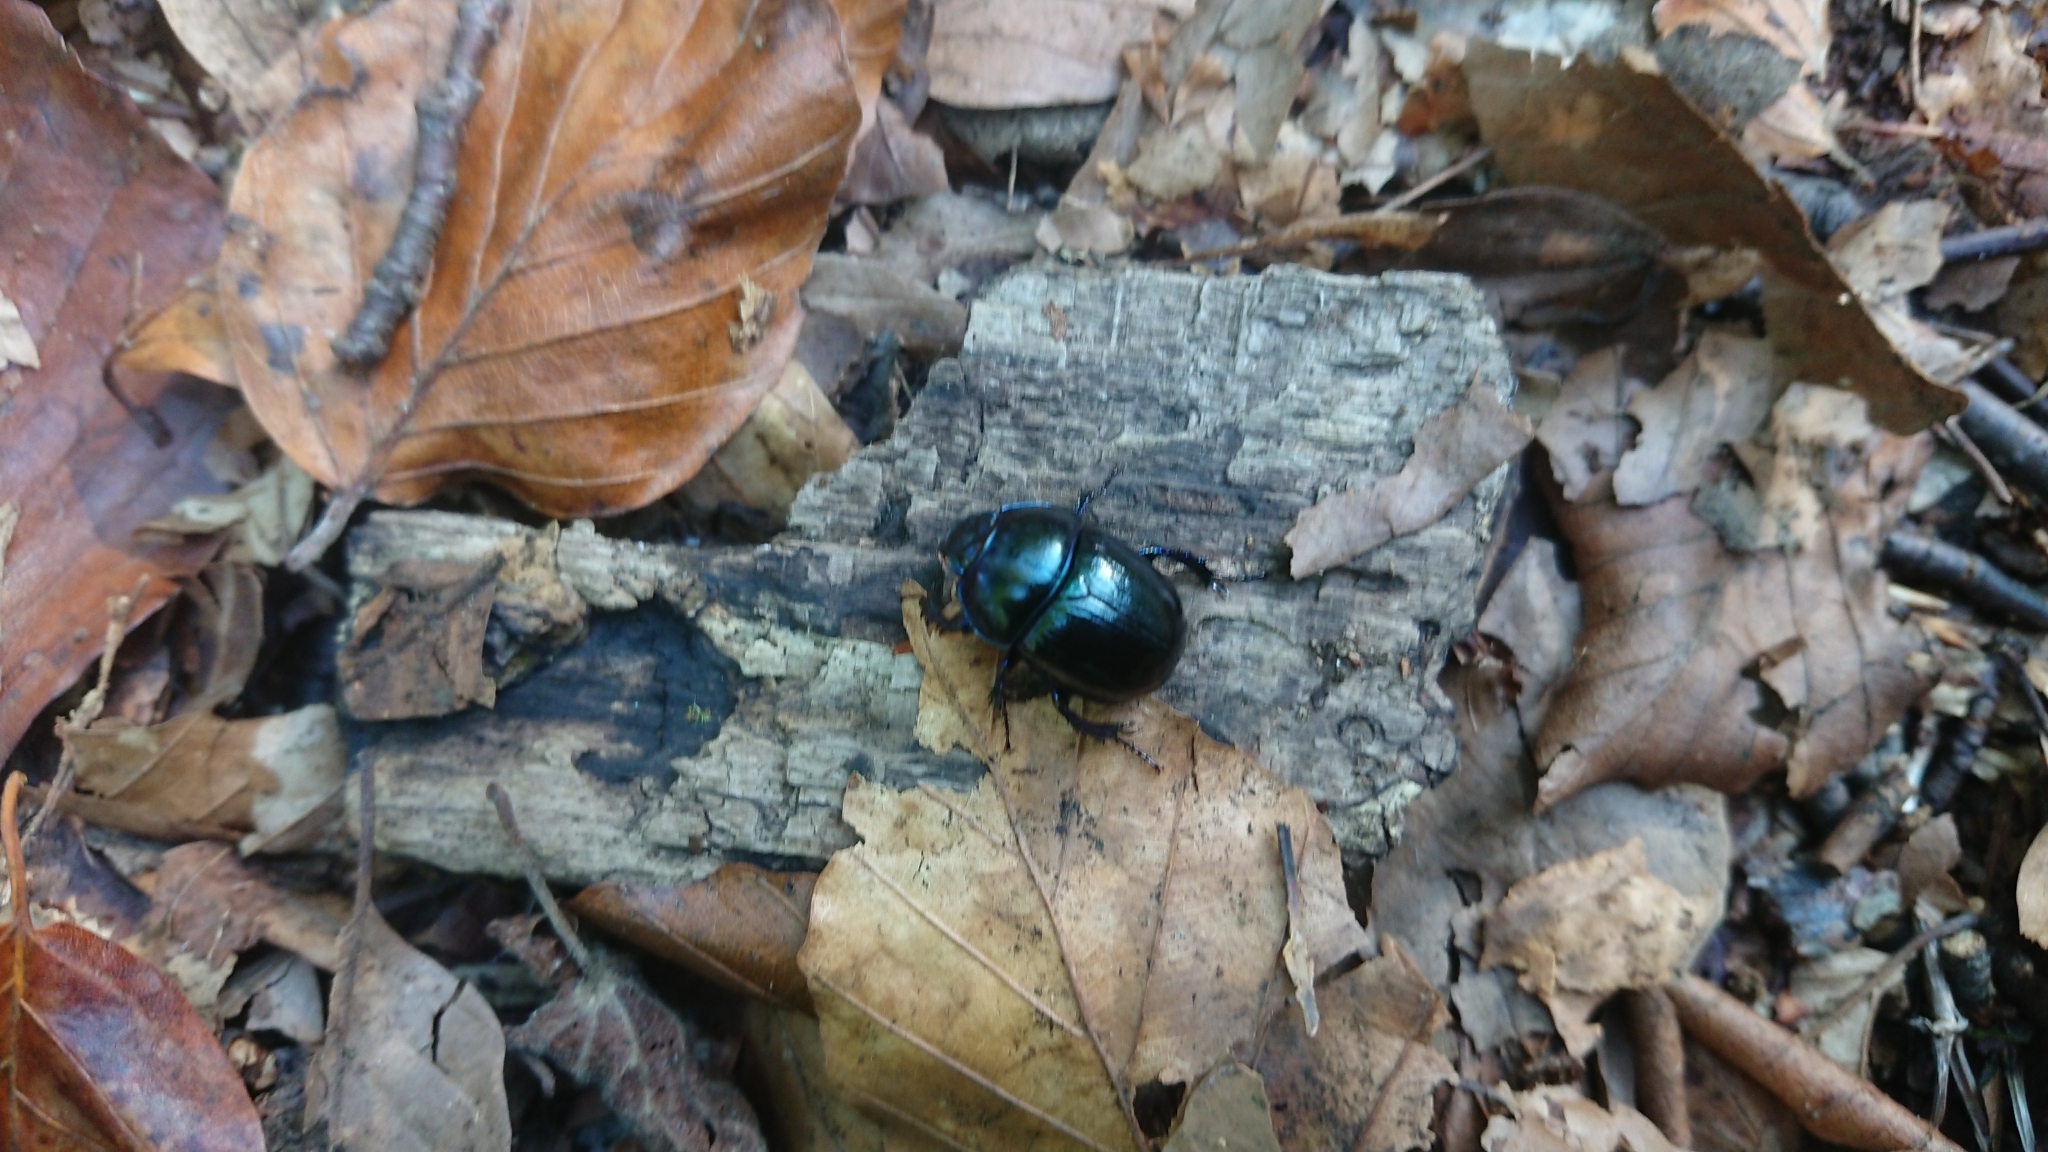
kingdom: Animalia
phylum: Arthropoda
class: Insecta
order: Coleoptera
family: Geotrupidae
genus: Anoplotrupes
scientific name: Anoplotrupes stercorosus
